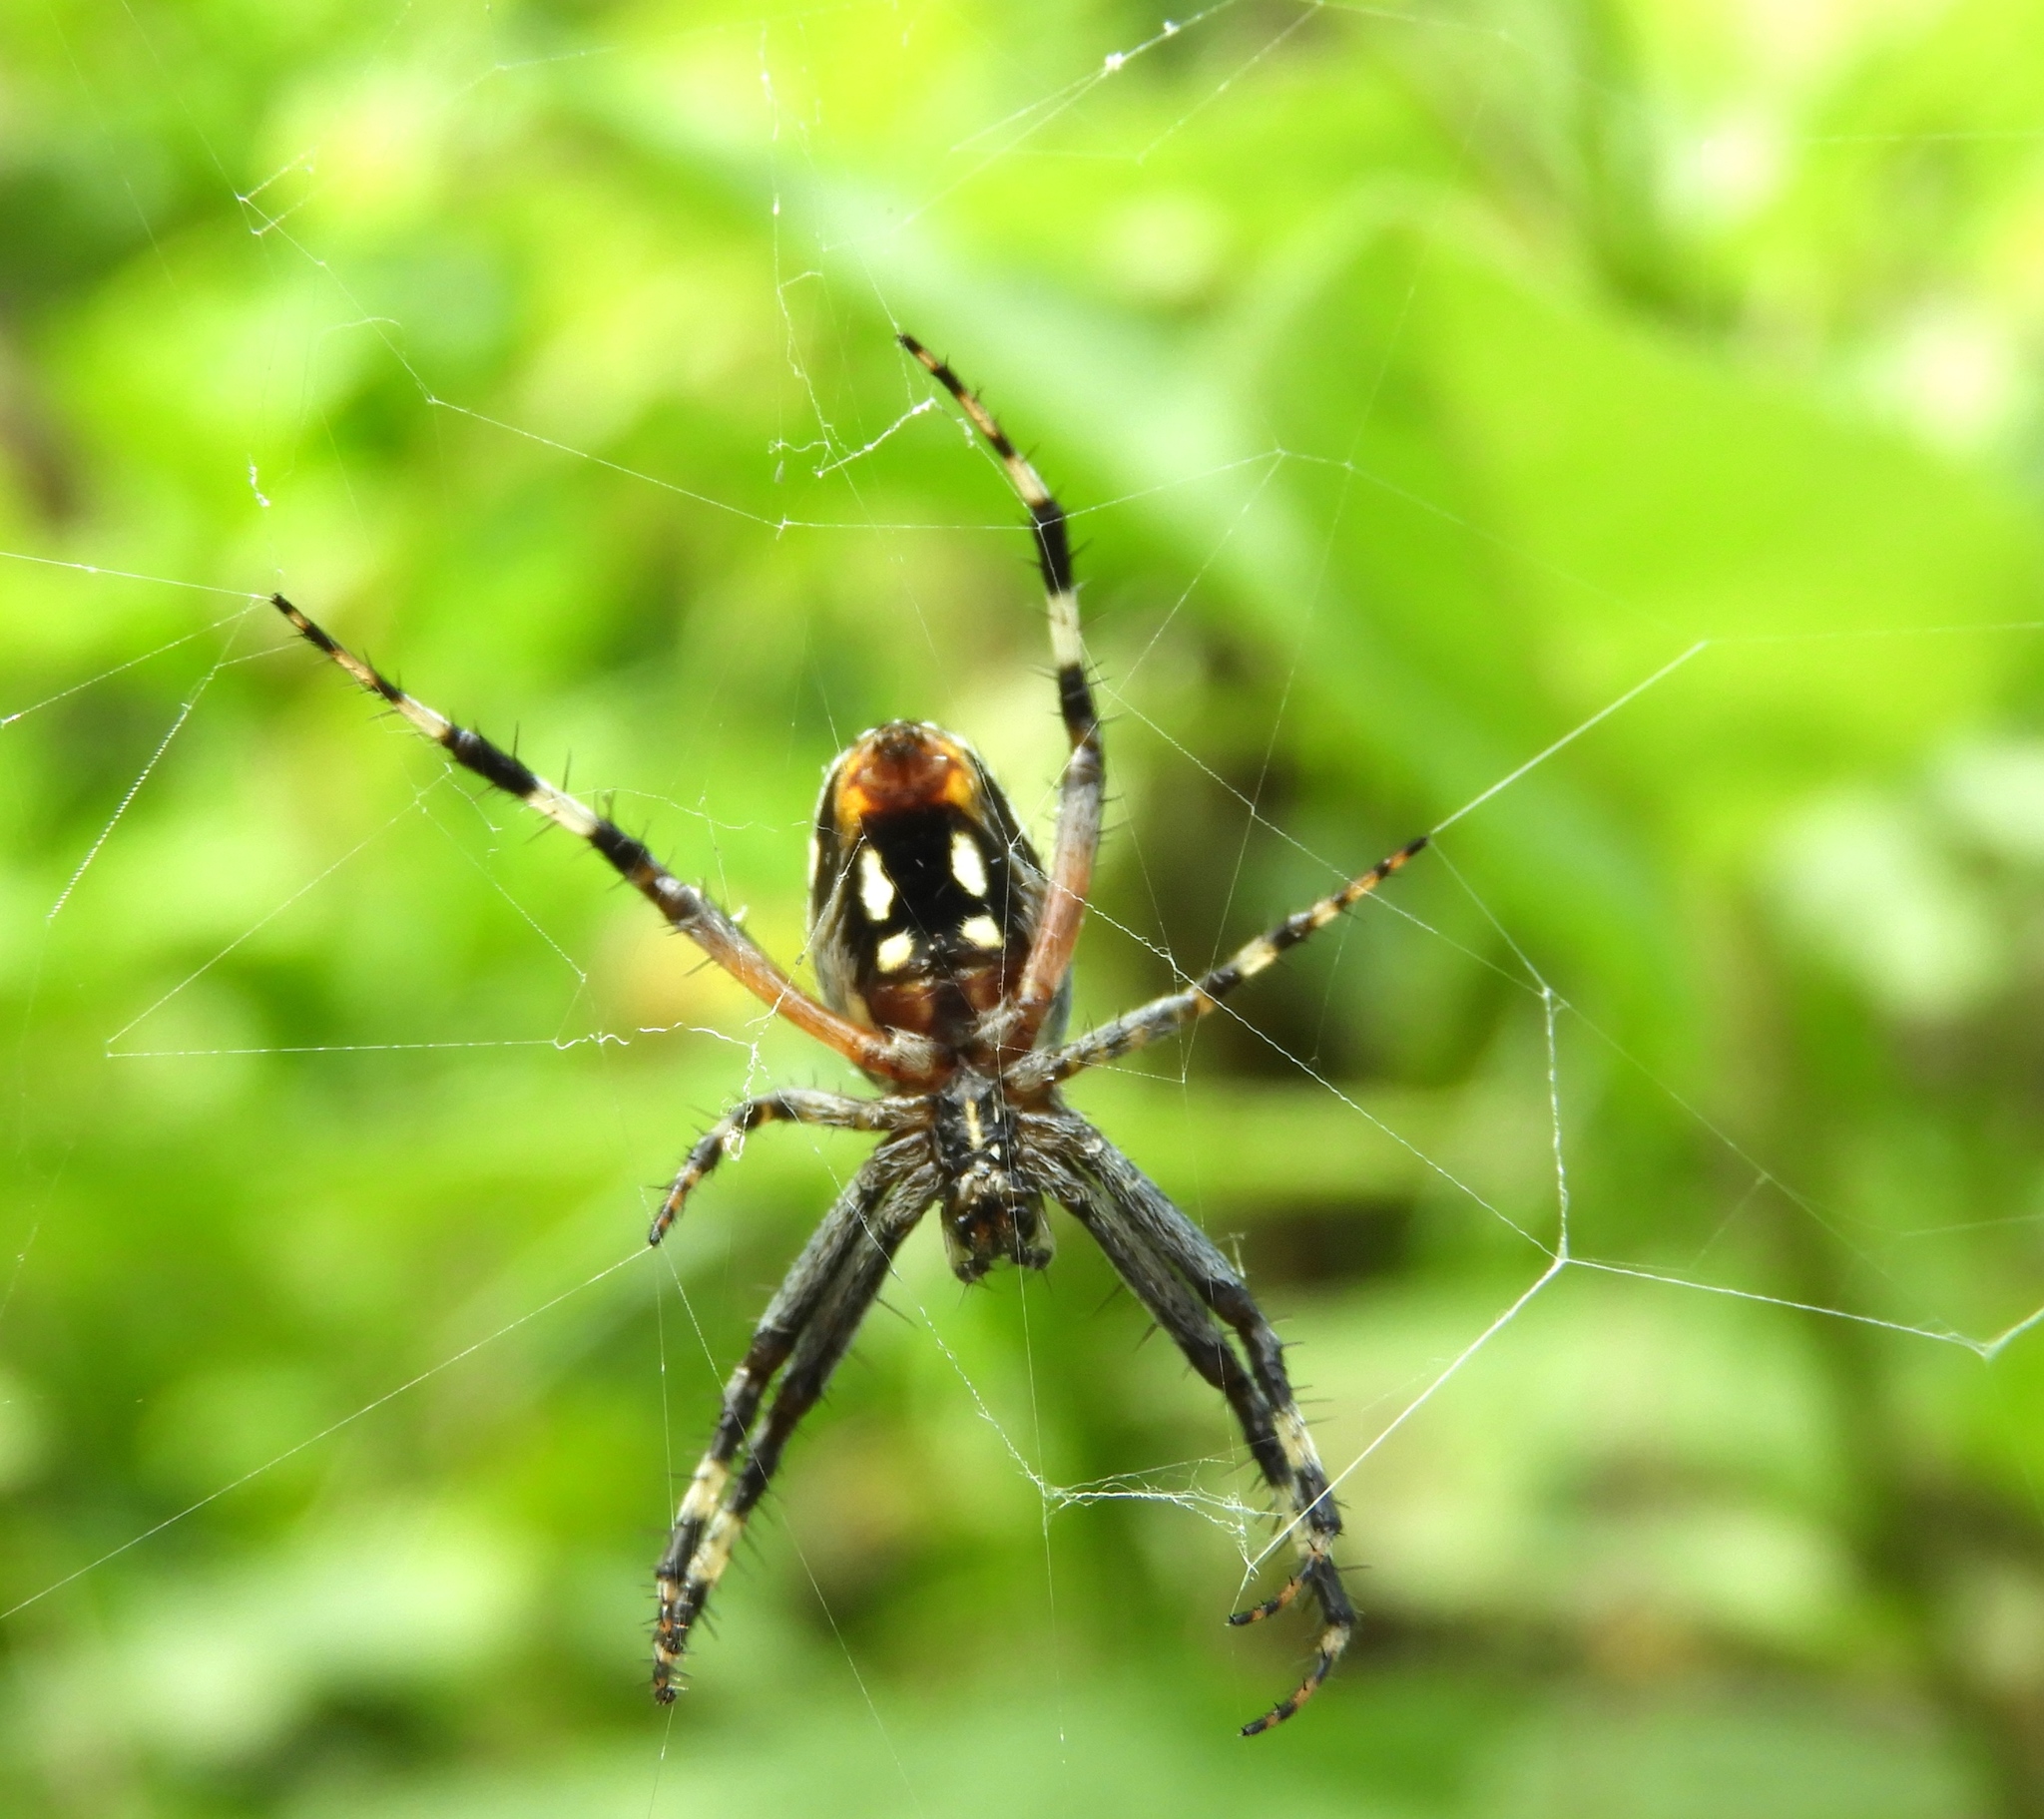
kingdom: Animalia
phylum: Arthropoda
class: Arachnida
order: Araneae
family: Araneidae
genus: Neoscona
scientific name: Neoscona
